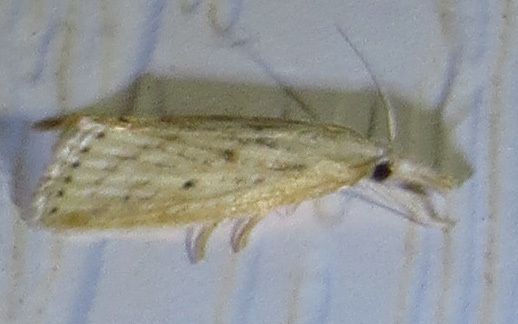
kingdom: Animalia
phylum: Arthropoda
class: Insecta
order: Lepidoptera
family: Crambidae
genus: Diatraea
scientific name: Diatraea lisetta
